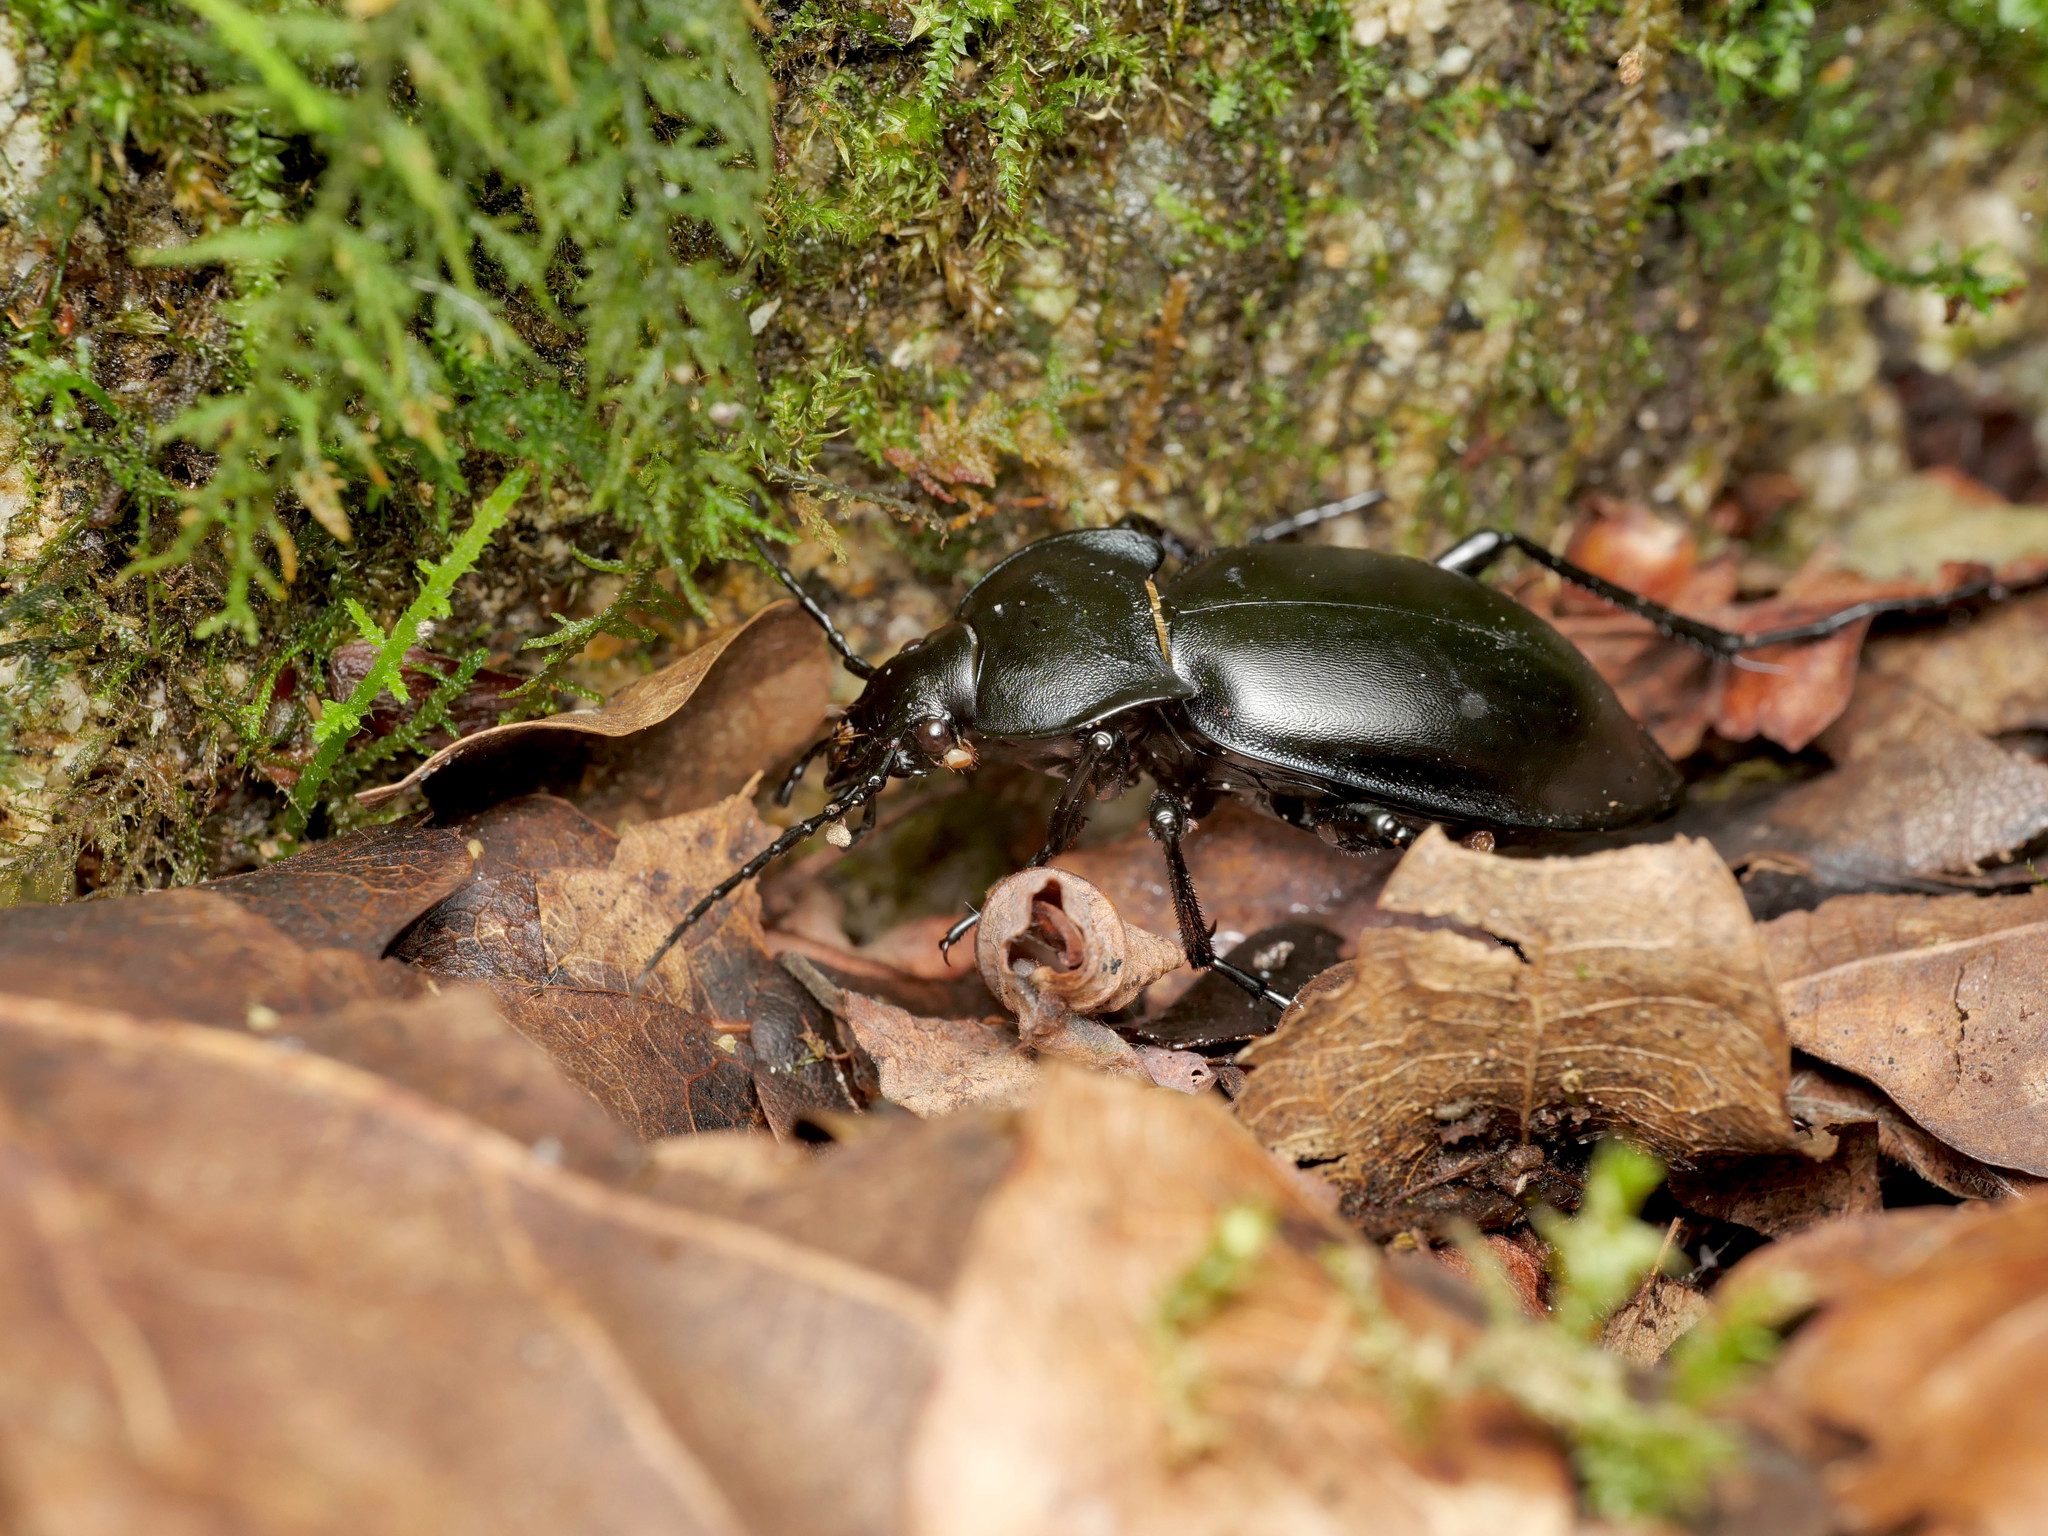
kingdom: Animalia
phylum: Arthropoda
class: Insecta
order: Coleoptera
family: Carabidae
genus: Carabus
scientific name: Carabus glabratus
